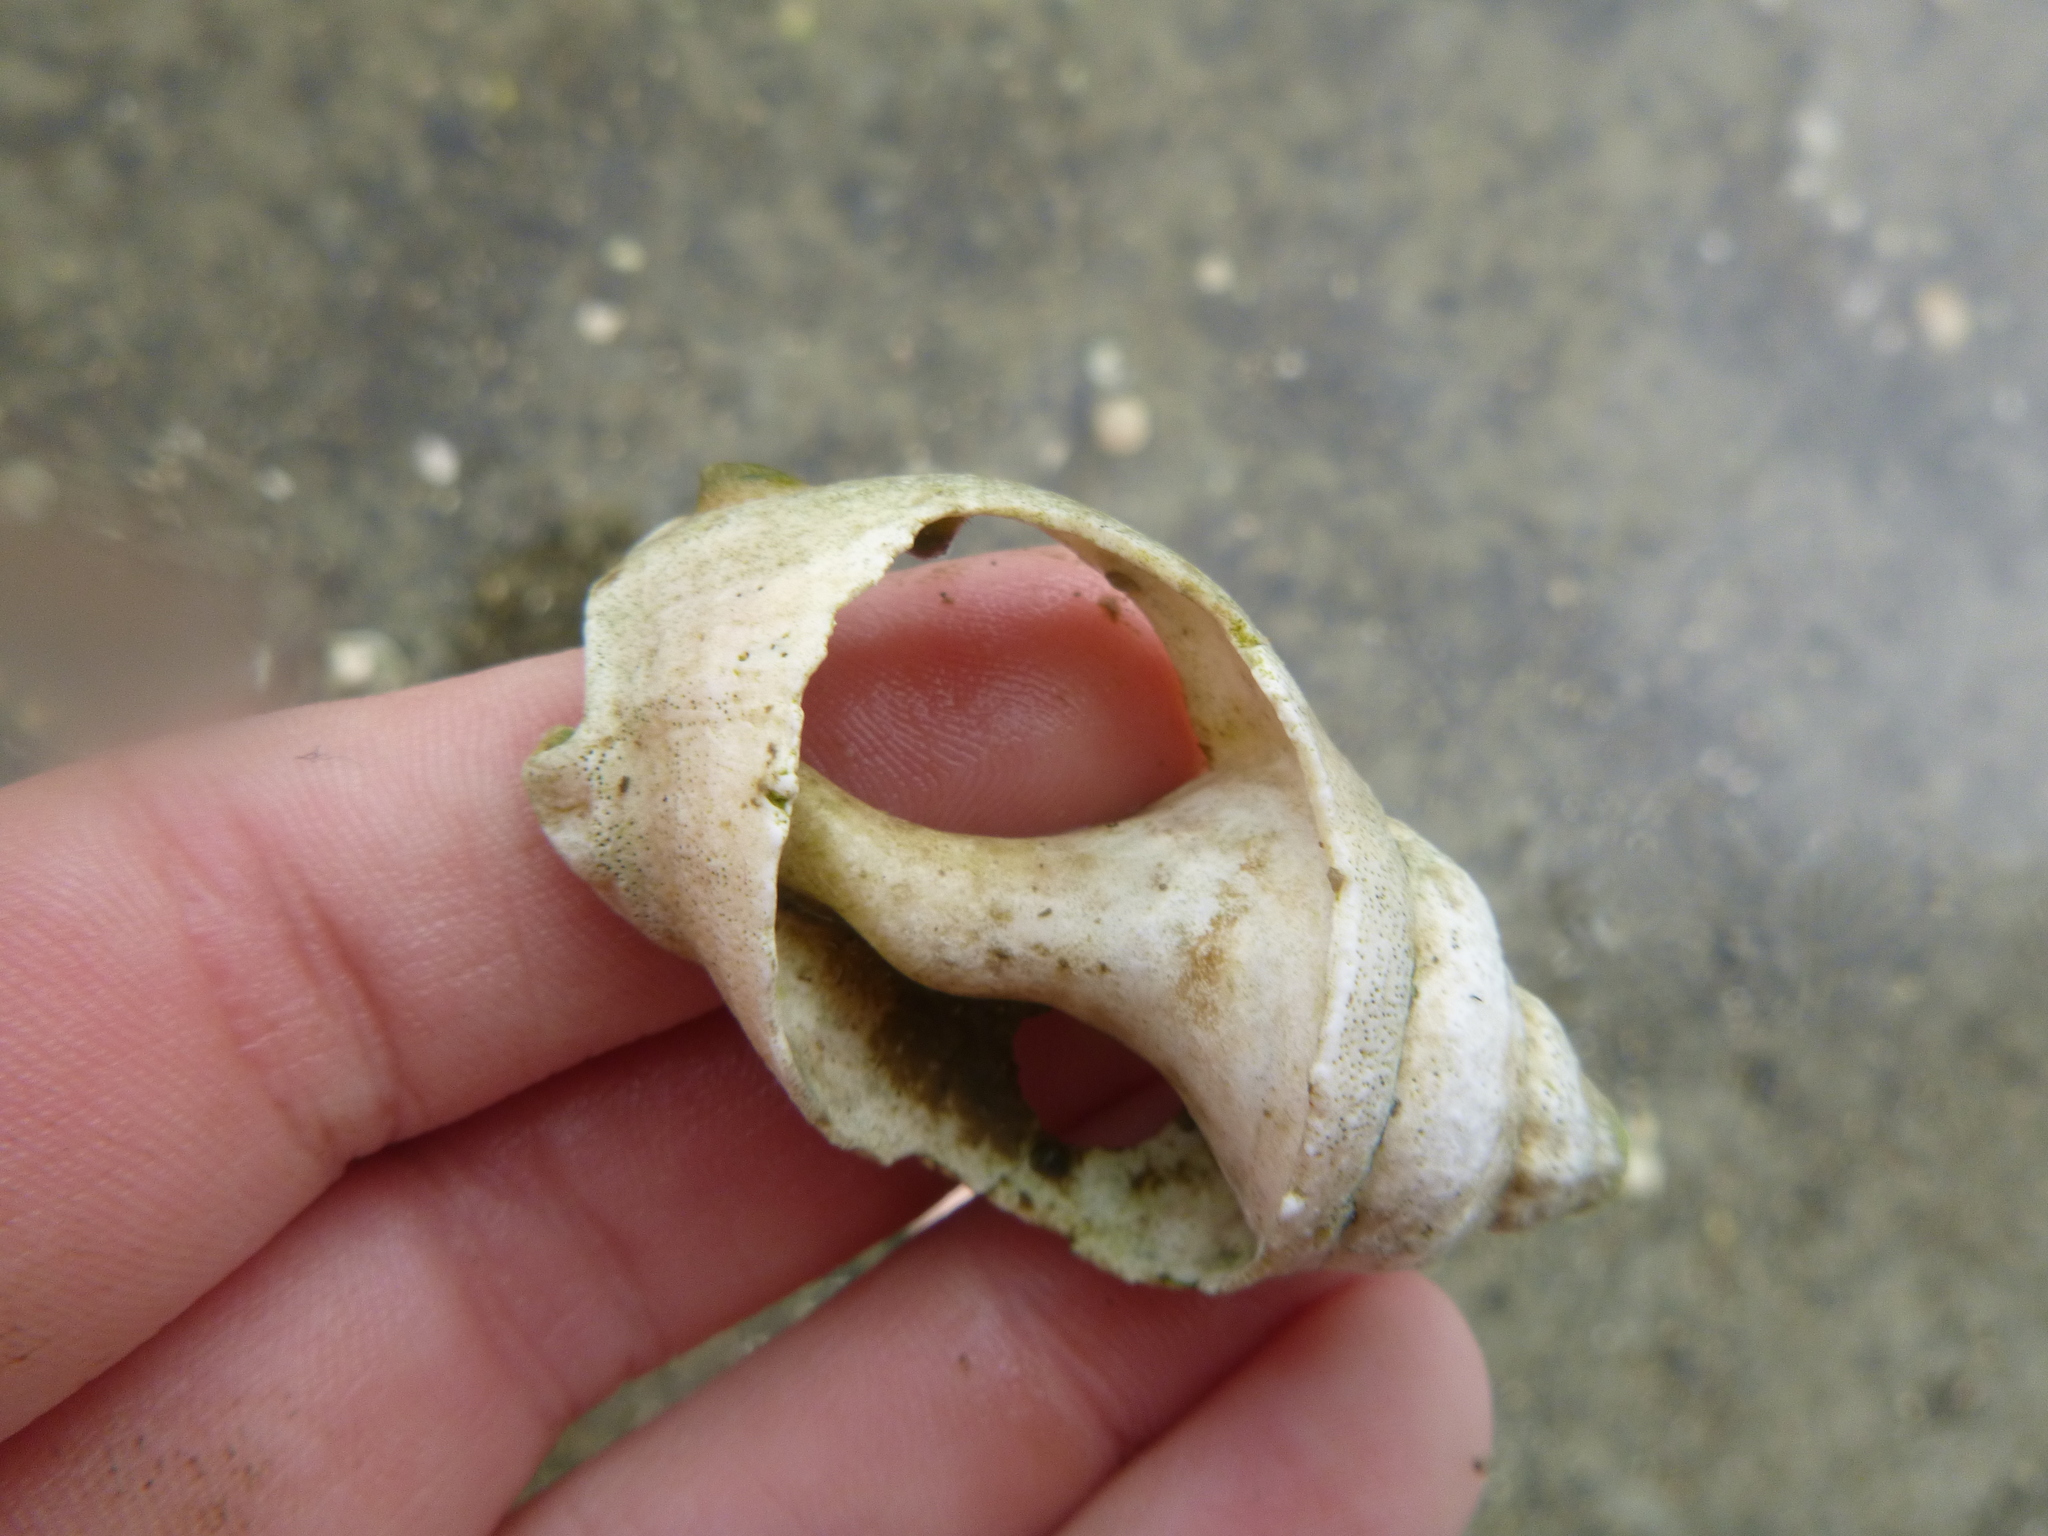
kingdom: Animalia
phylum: Mollusca
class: Gastropoda
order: Neogastropoda
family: Cominellidae
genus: Cominella
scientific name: Cominella adspersa
